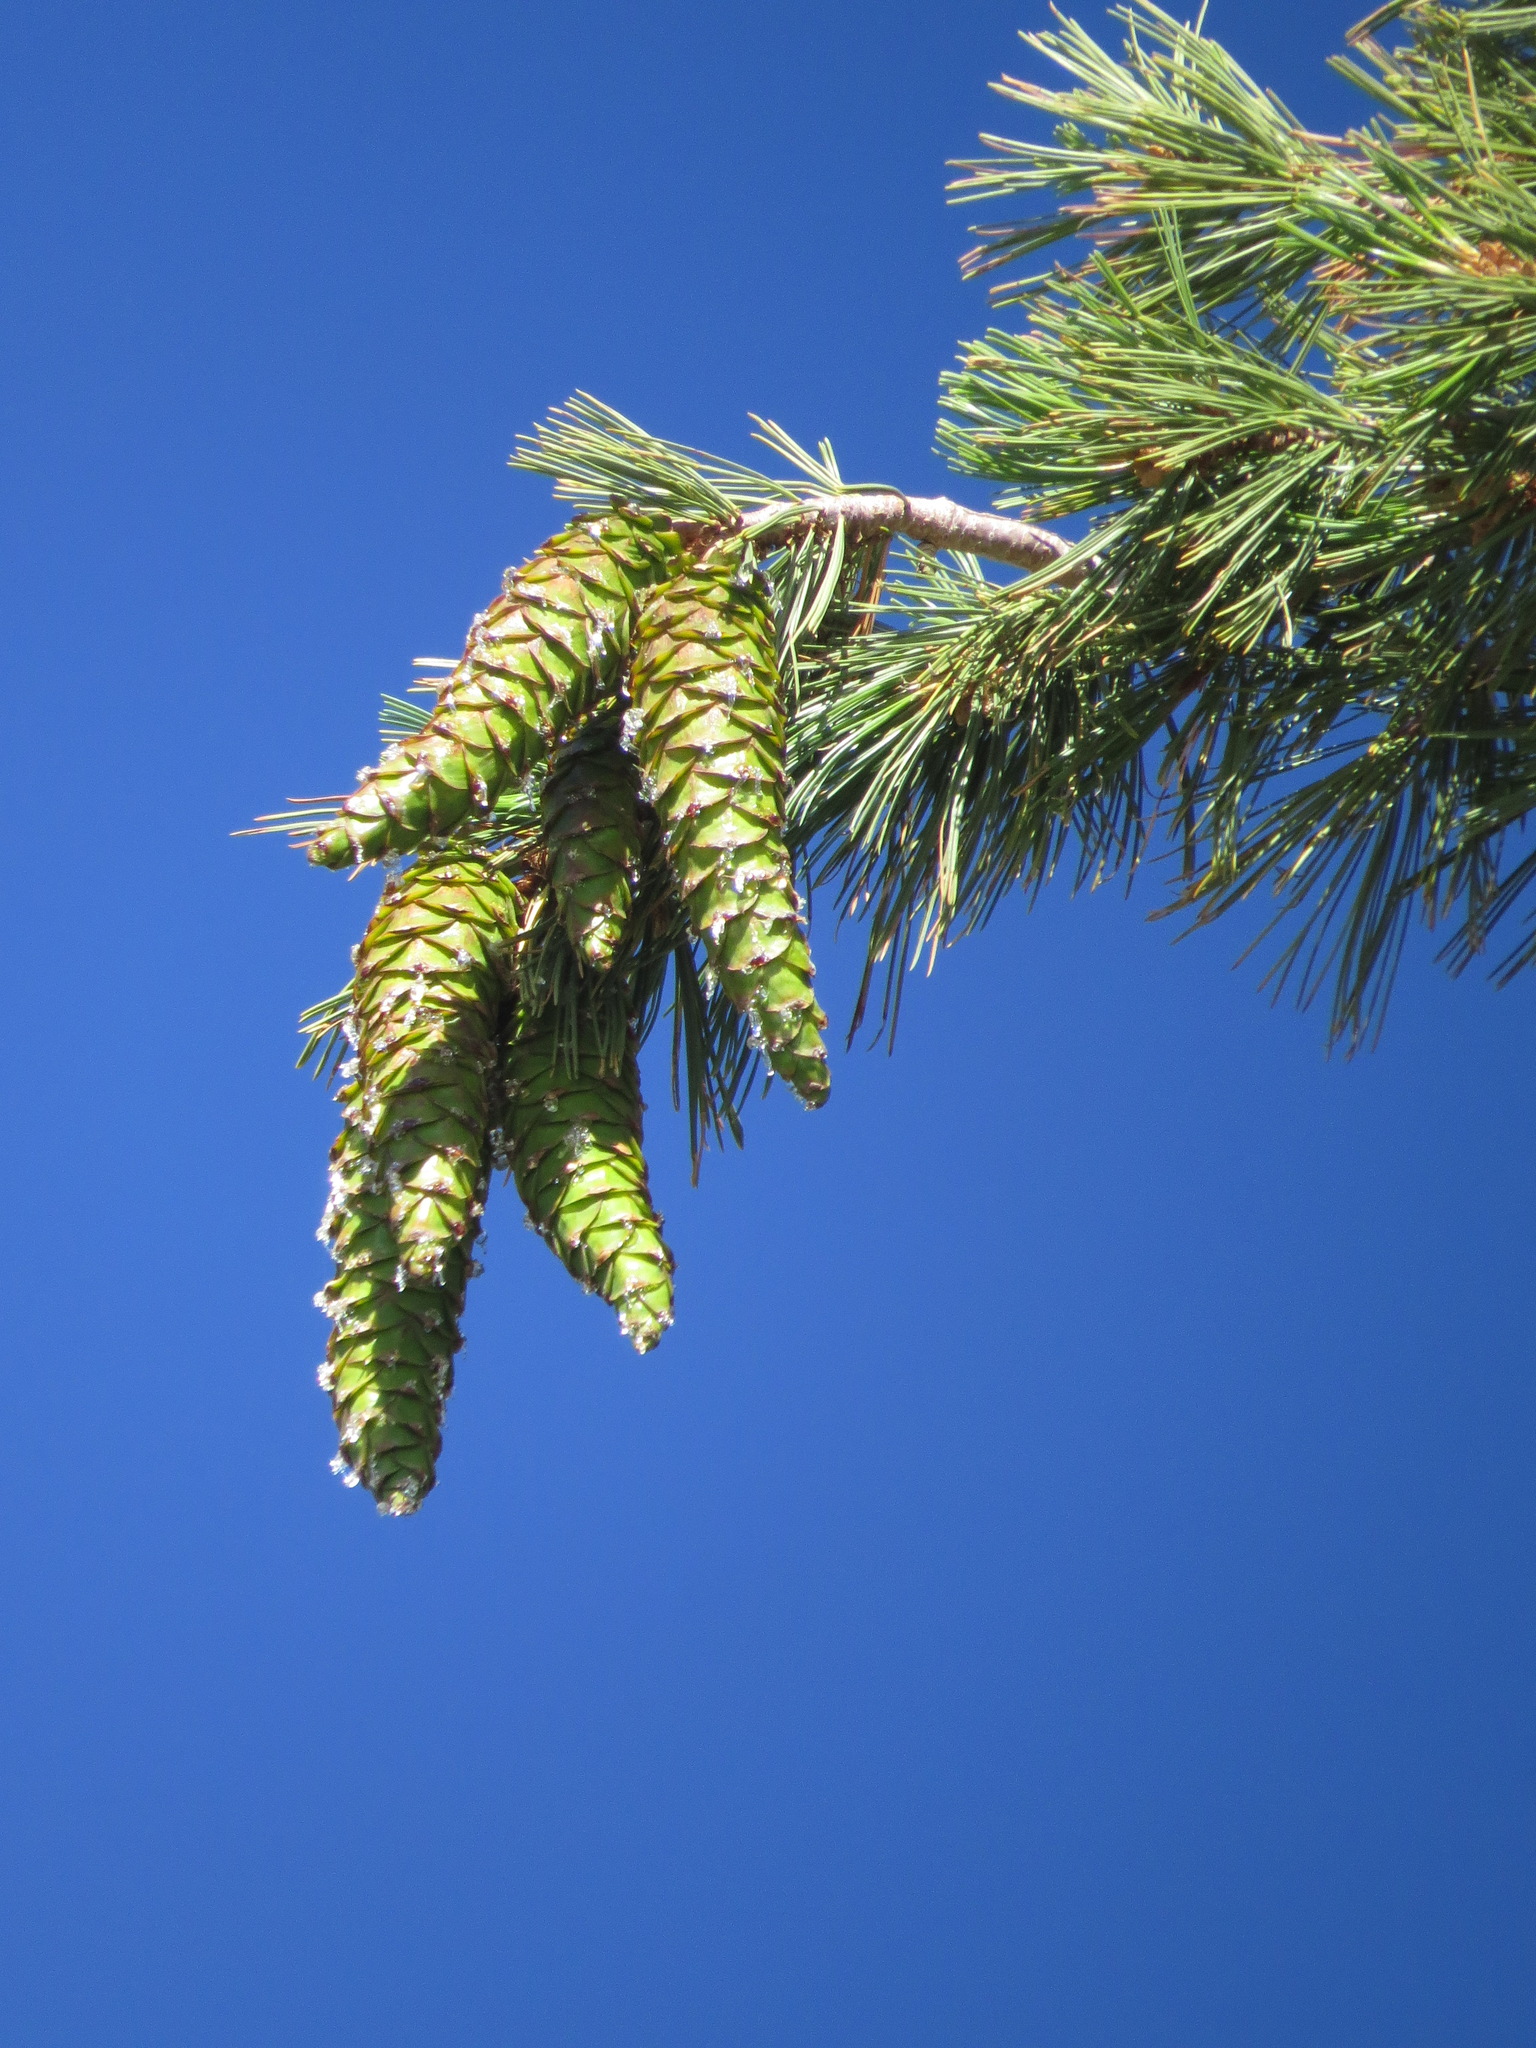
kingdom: Plantae
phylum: Tracheophyta
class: Pinopsida
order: Pinales
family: Pinaceae
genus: Pinus
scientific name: Pinus monticola
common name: Western white pine
